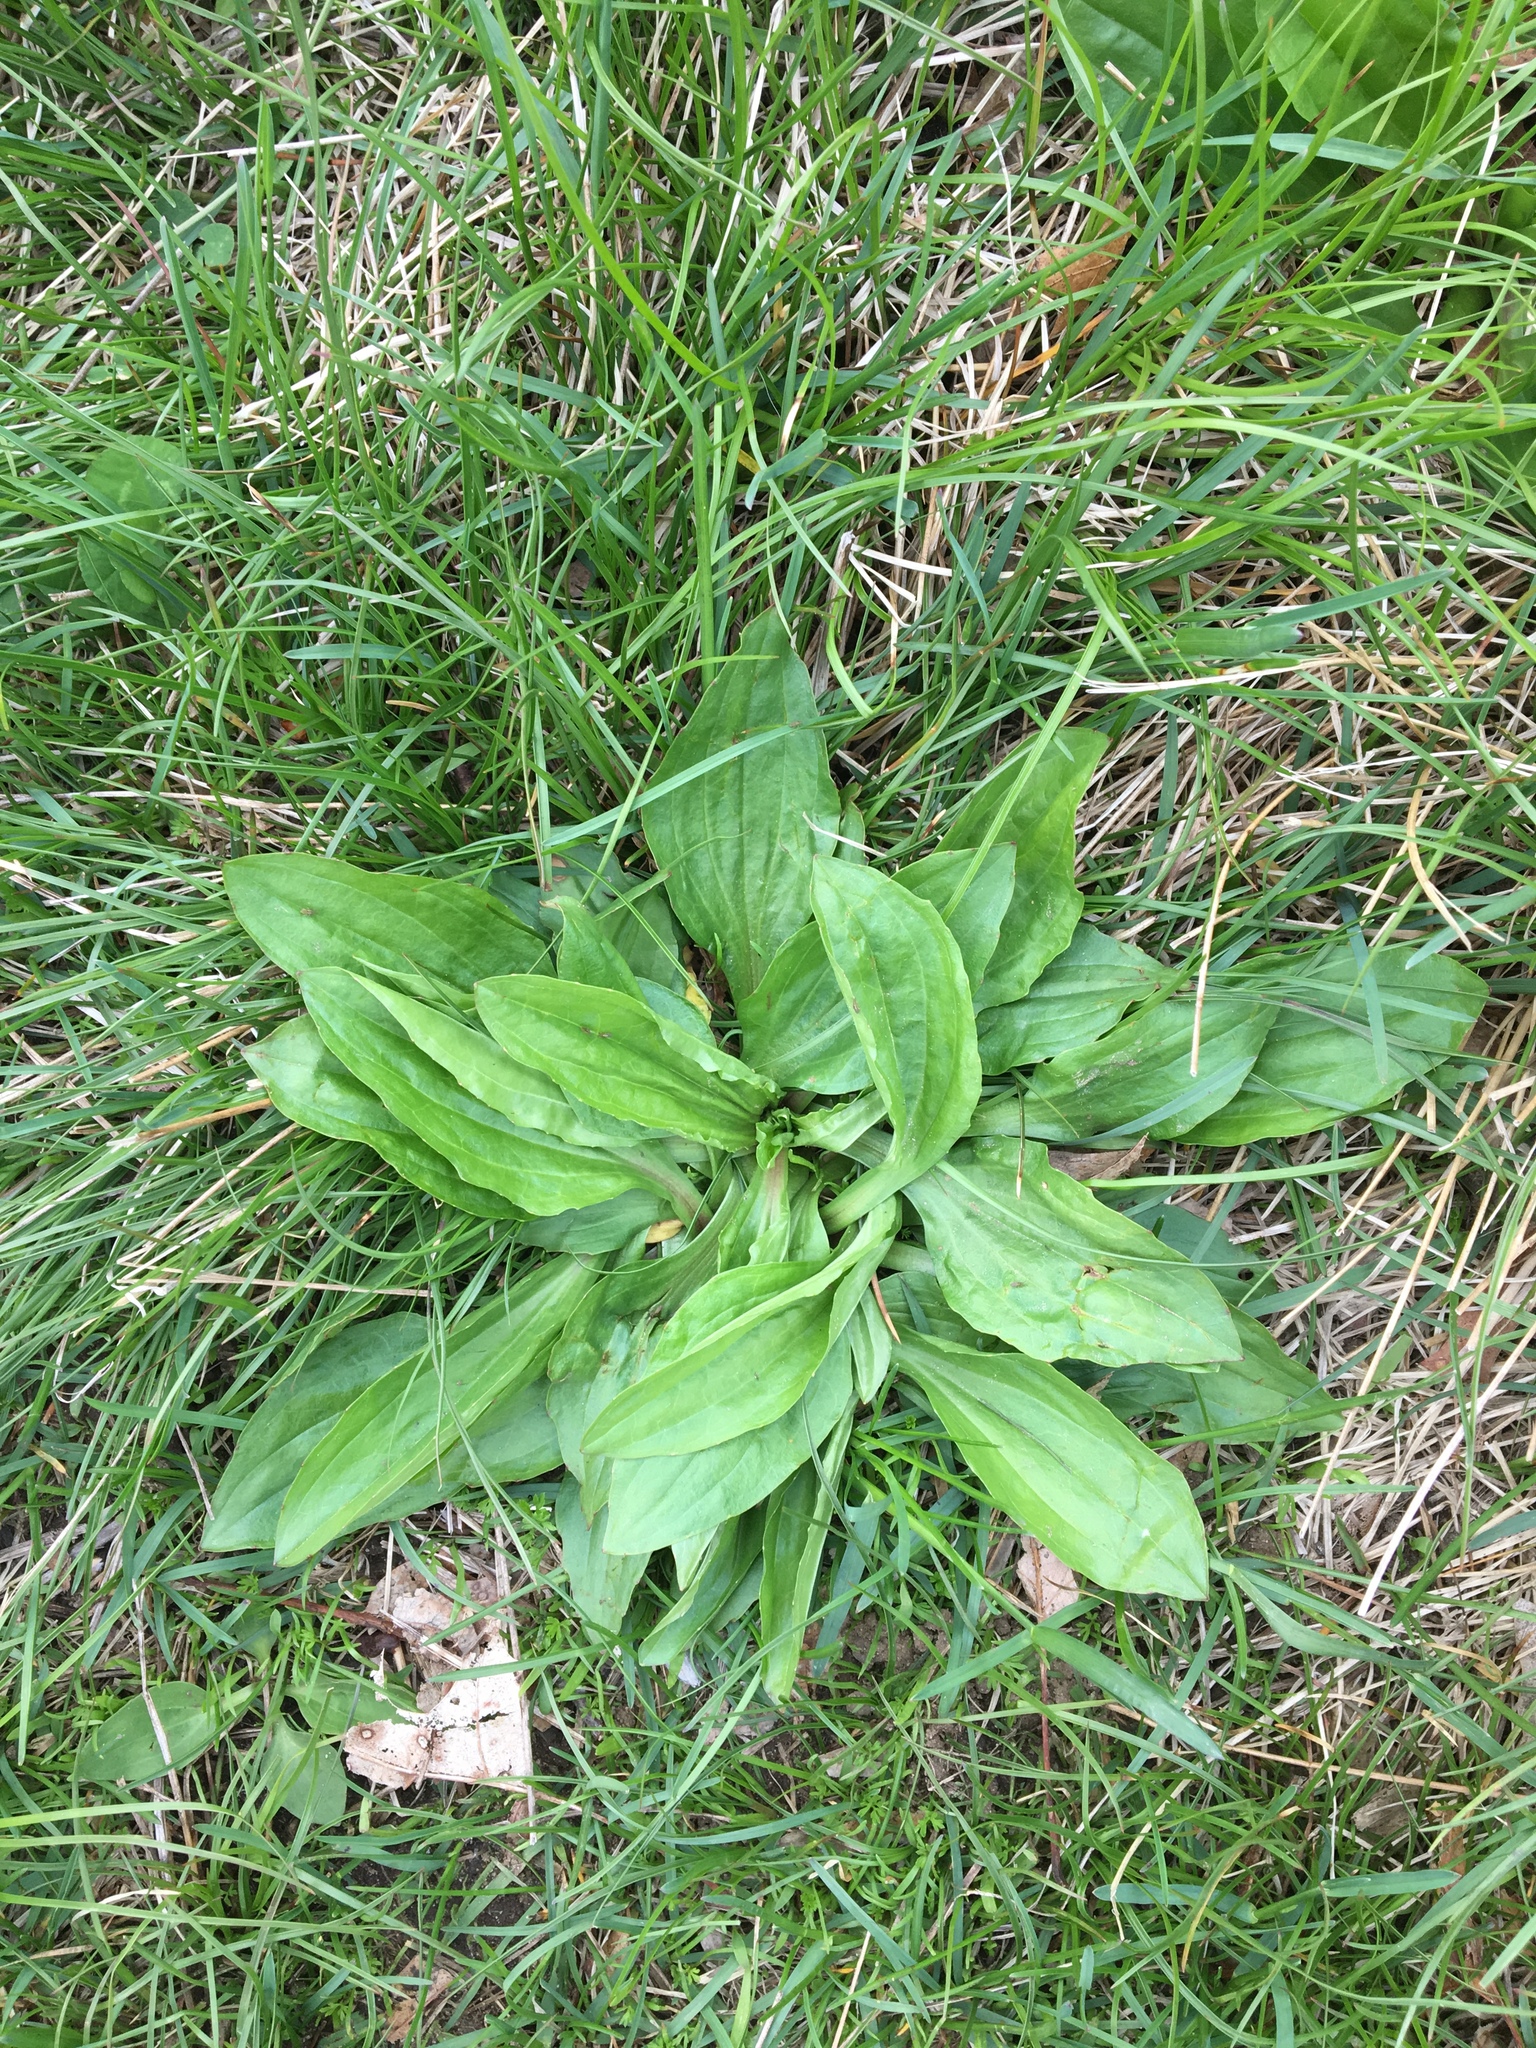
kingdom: Plantae
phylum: Tracheophyta
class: Magnoliopsida
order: Lamiales
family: Plantaginaceae
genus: Plantago
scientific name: Plantago major
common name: Common plantain
